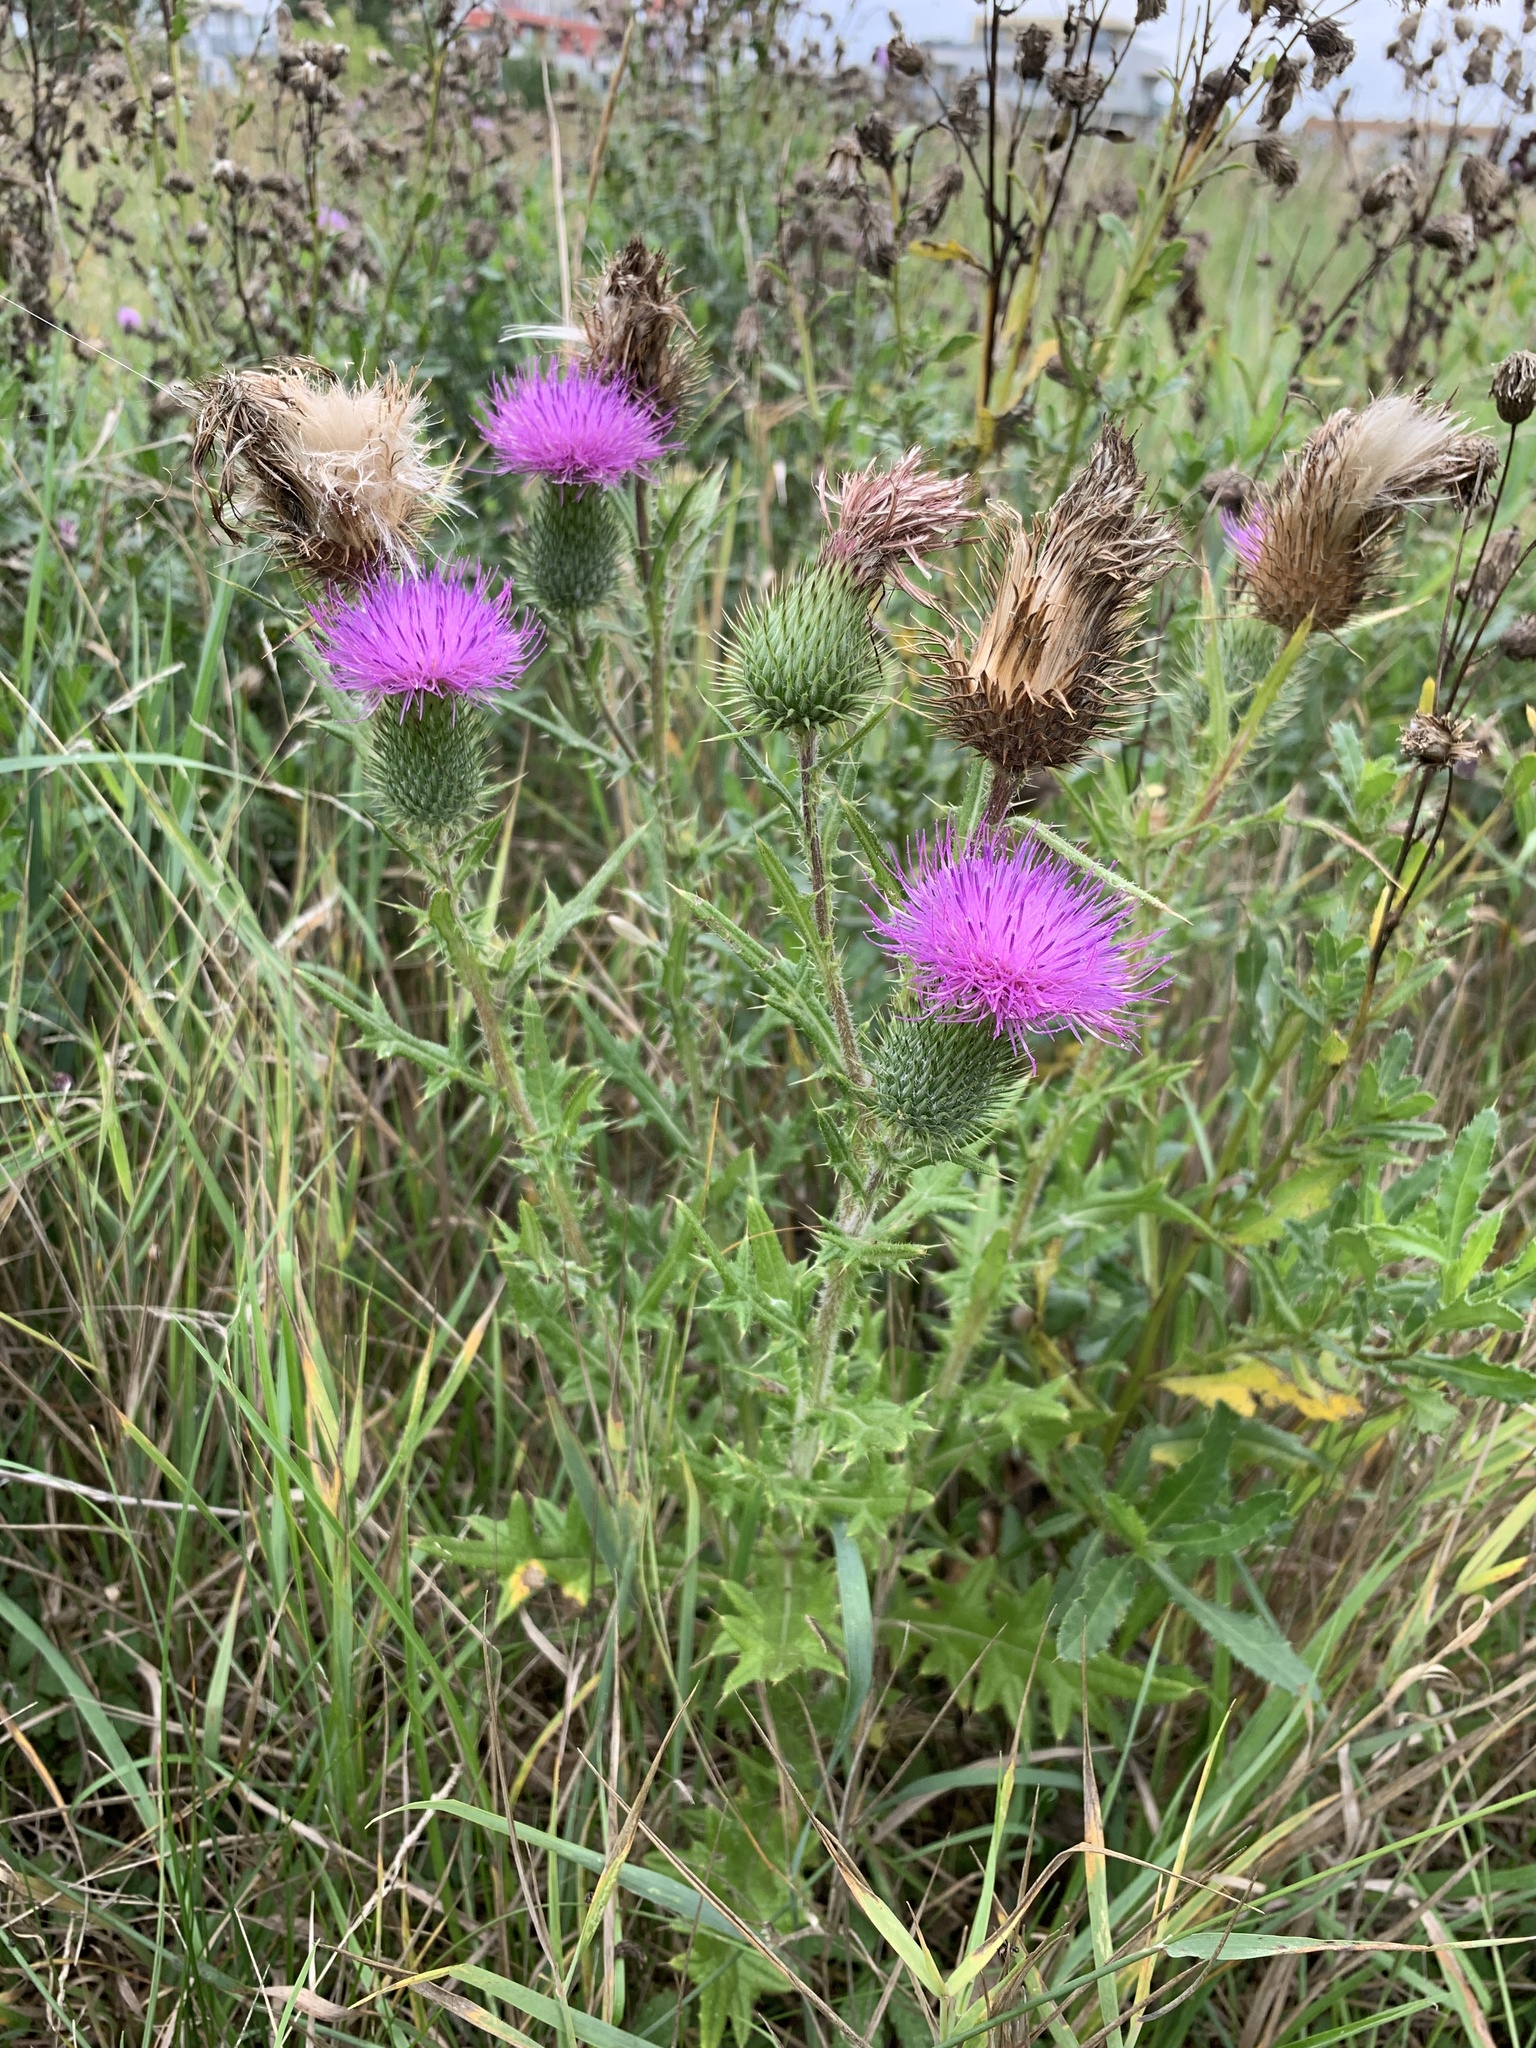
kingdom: Plantae
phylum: Tracheophyta
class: Magnoliopsida
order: Asterales
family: Asteraceae
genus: Cirsium
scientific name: Cirsium vulgare
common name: Bull thistle
